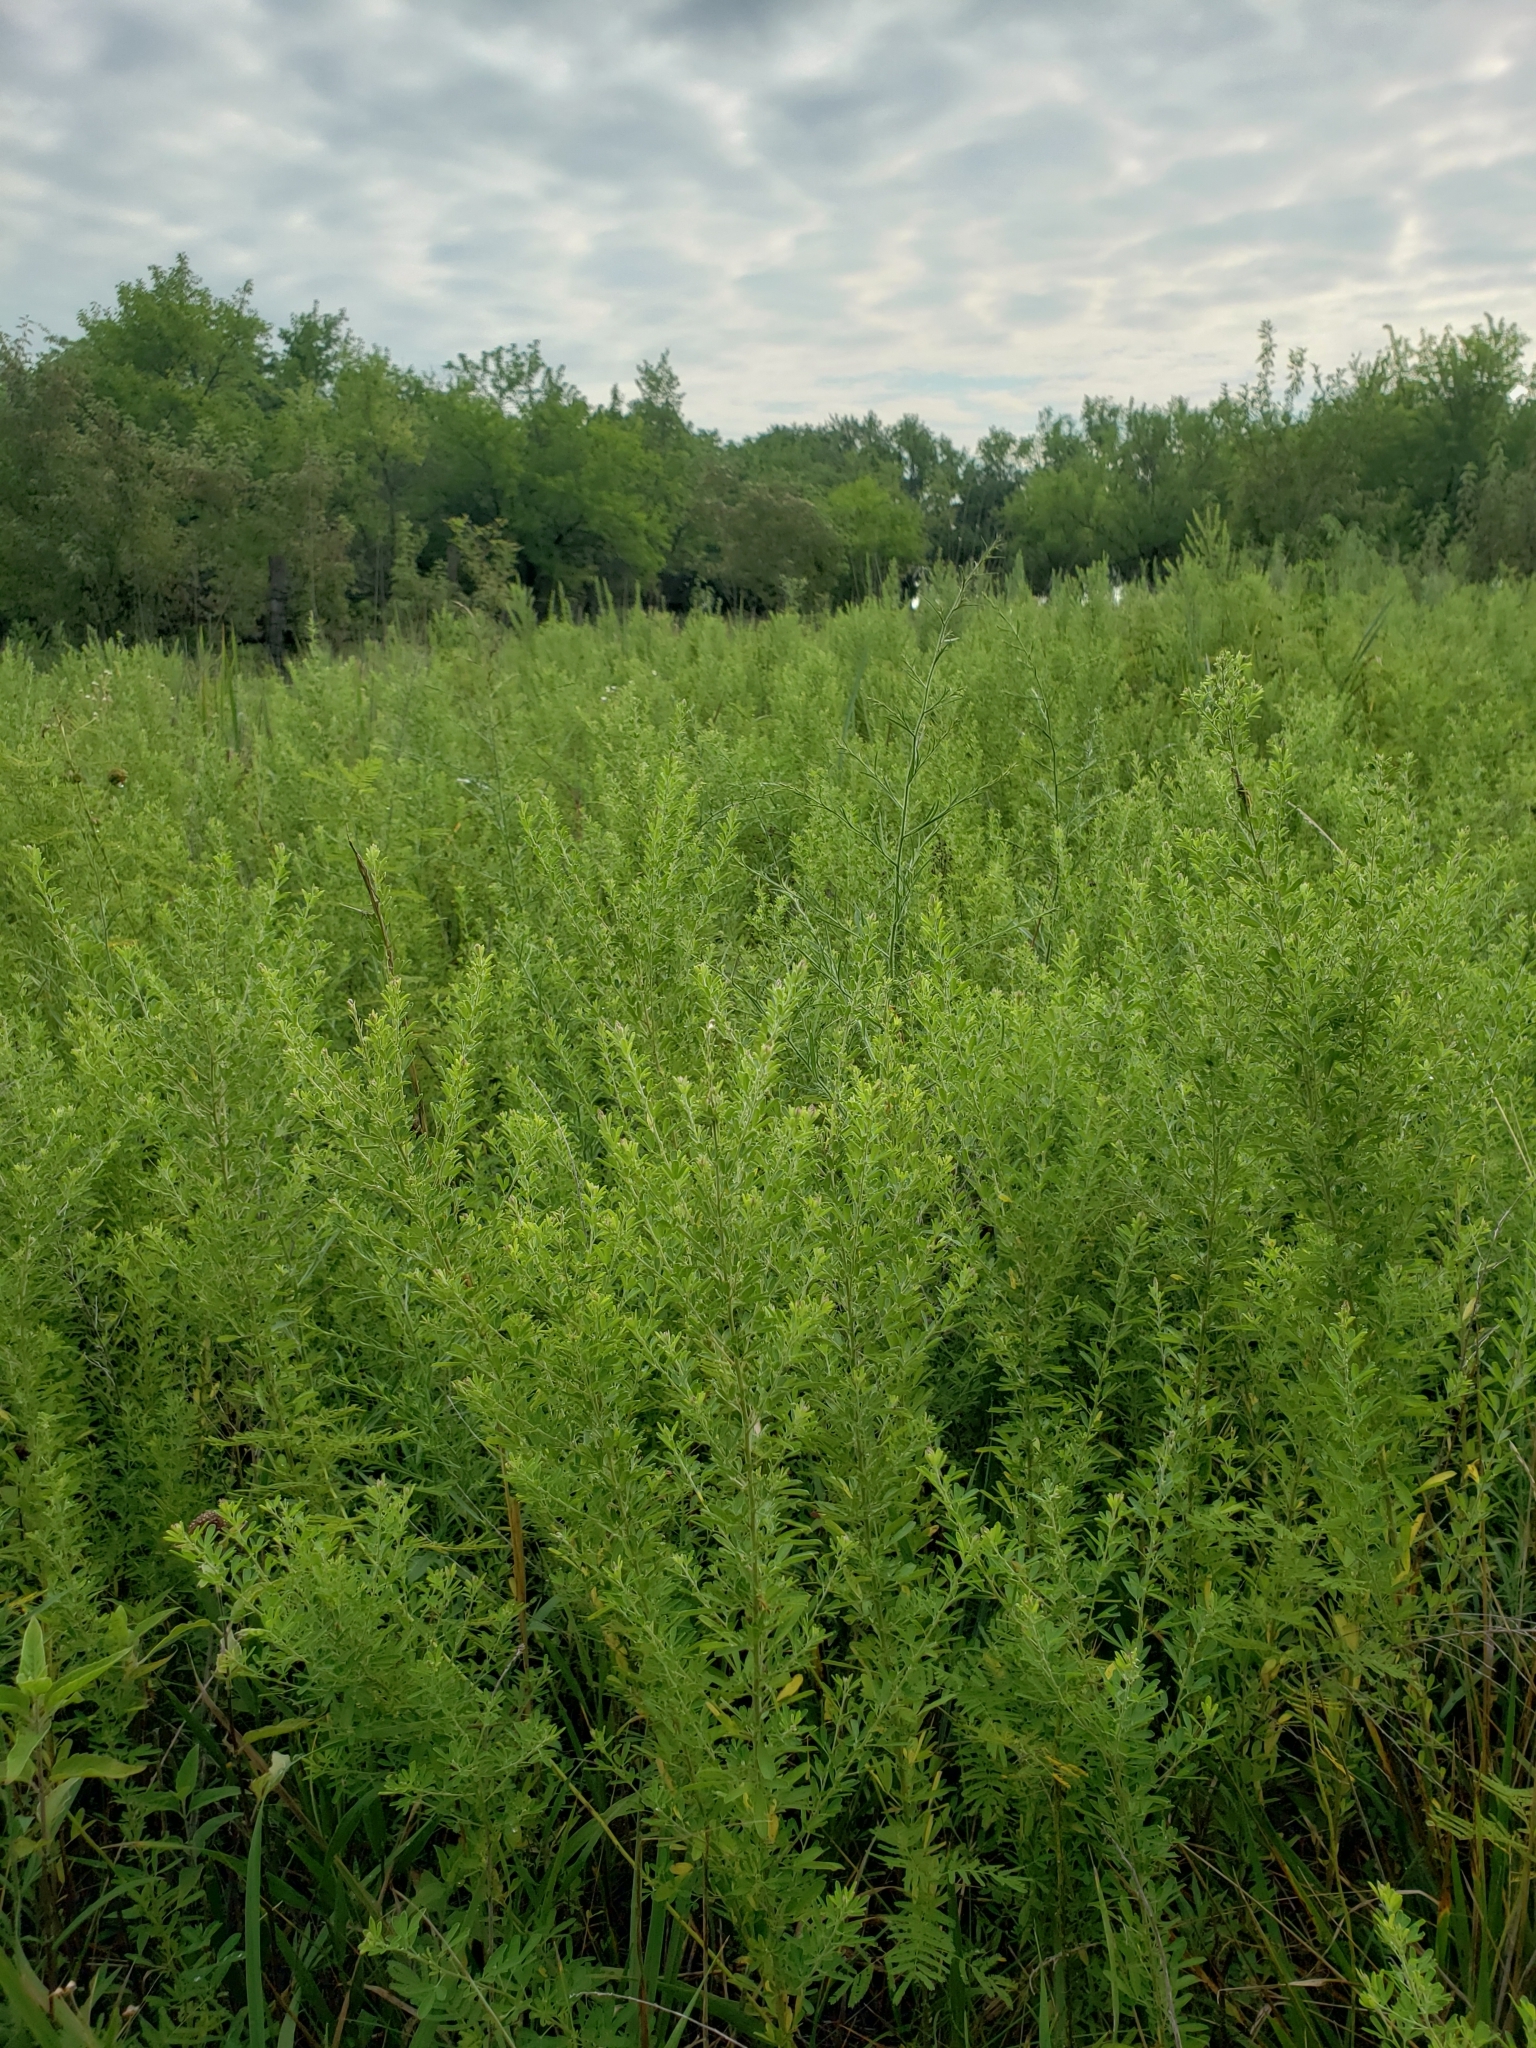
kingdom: Plantae
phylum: Tracheophyta
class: Magnoliopsida
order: Fabales
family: Fabaceae
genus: Lespedeza
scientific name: Lespedeza cuneata
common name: Chinese bush-clover
